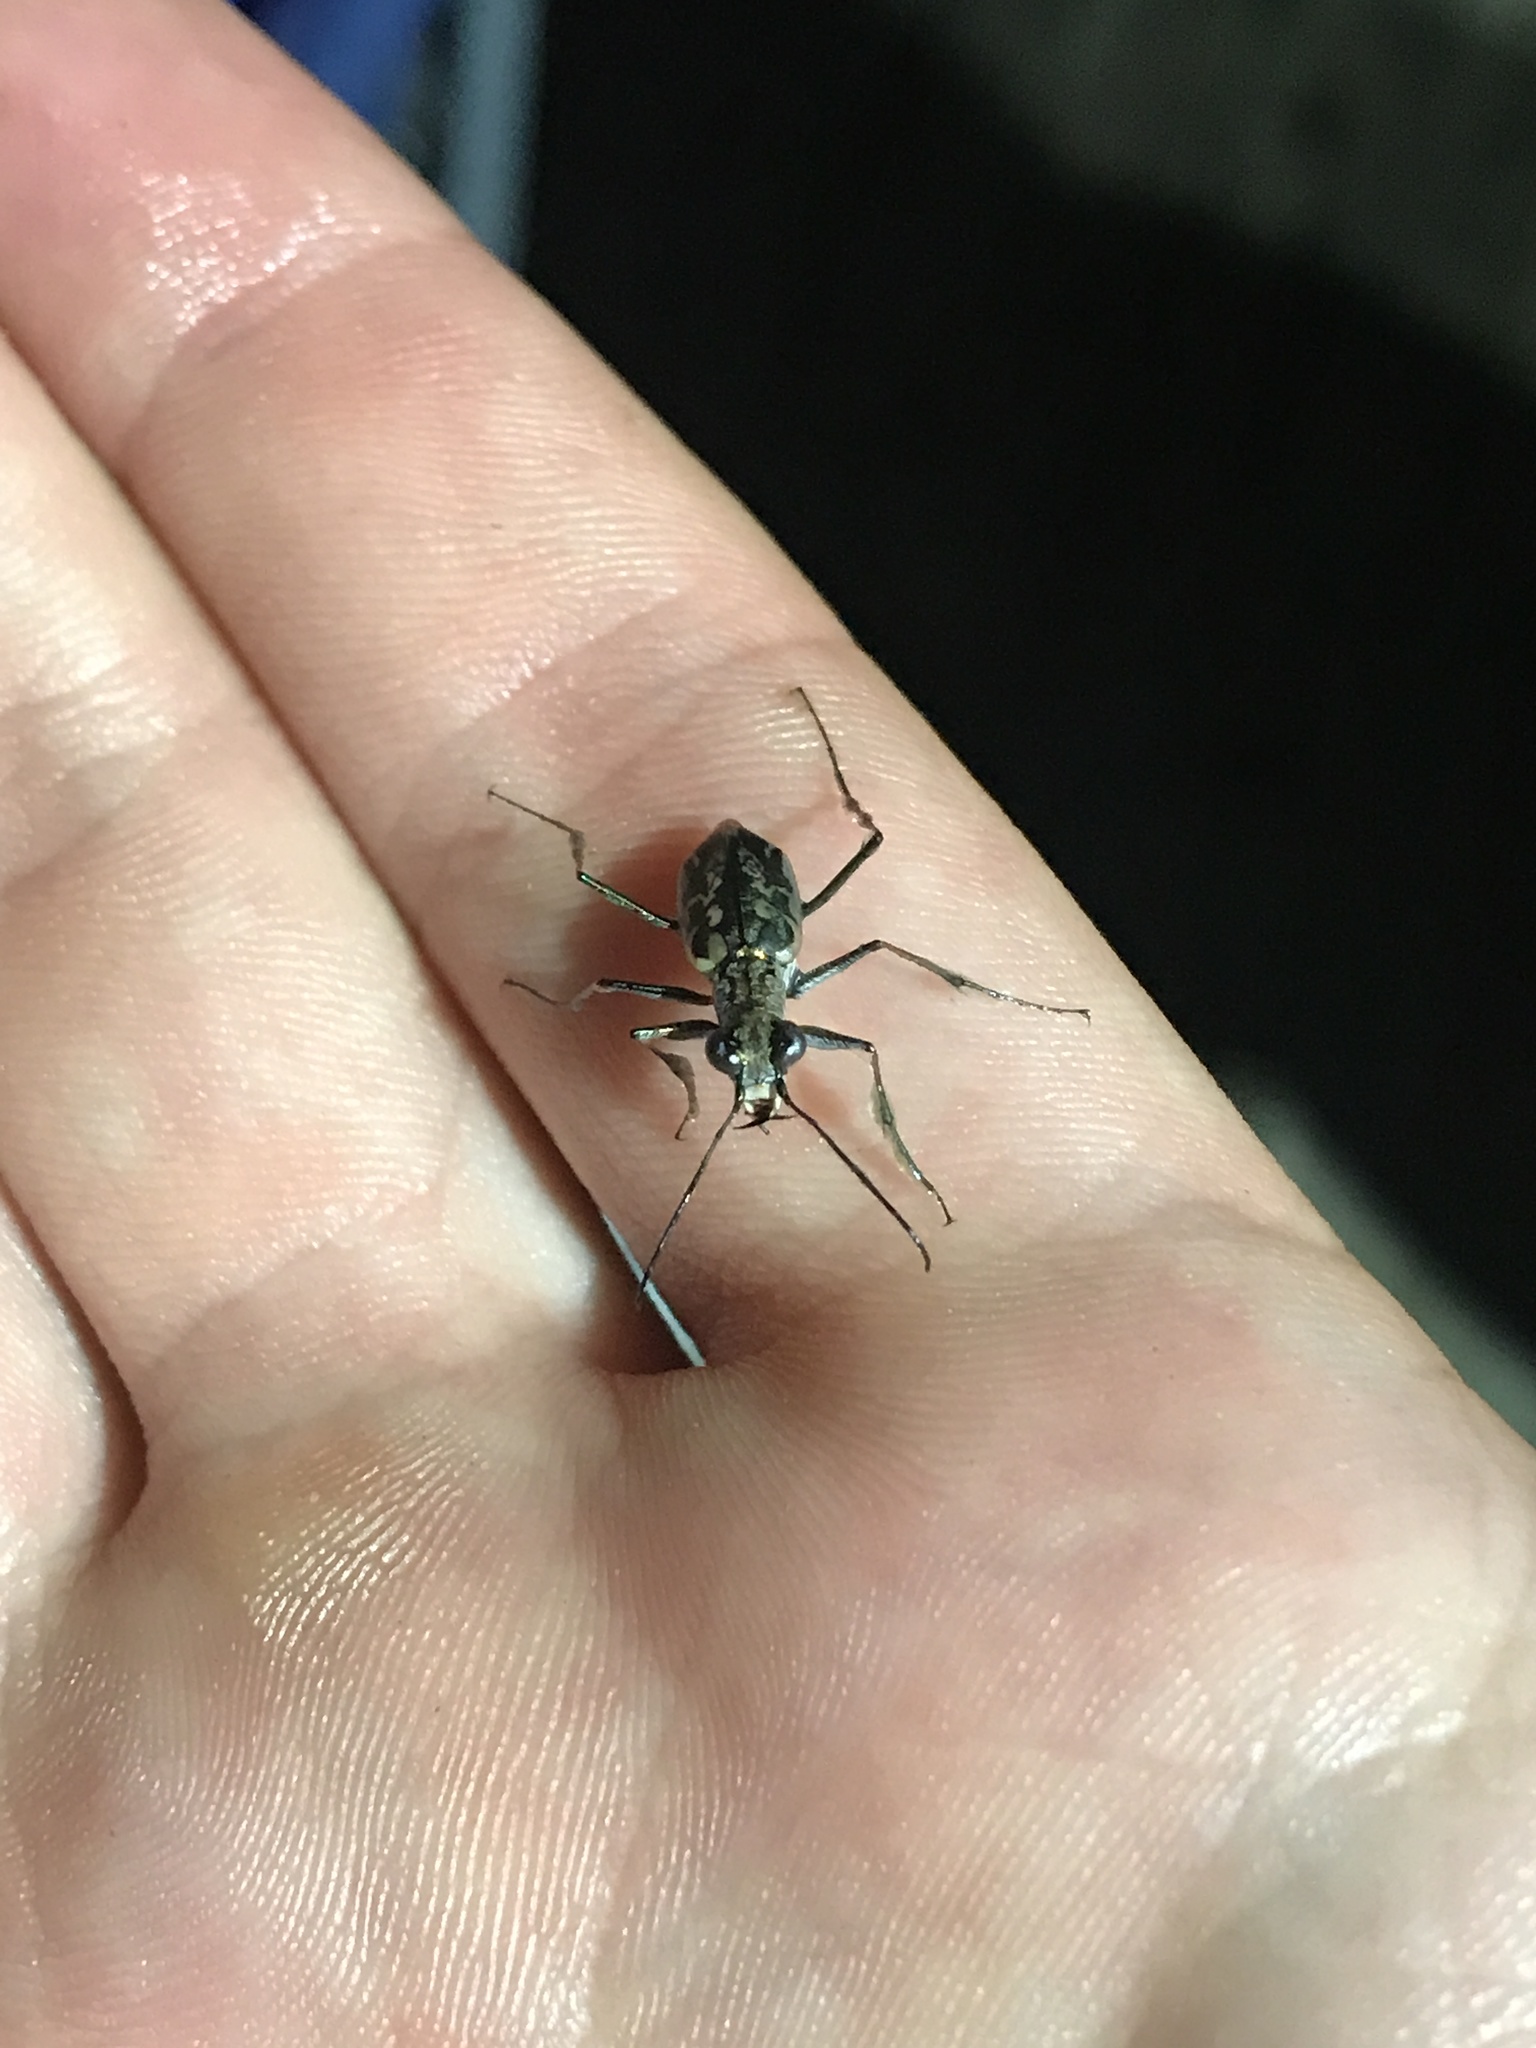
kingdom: Animalia
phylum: Arthropoda
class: Insecta
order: Coleoptera
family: Carabidae
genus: Ellipsoptera
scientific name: Ellipsoptera hamata
